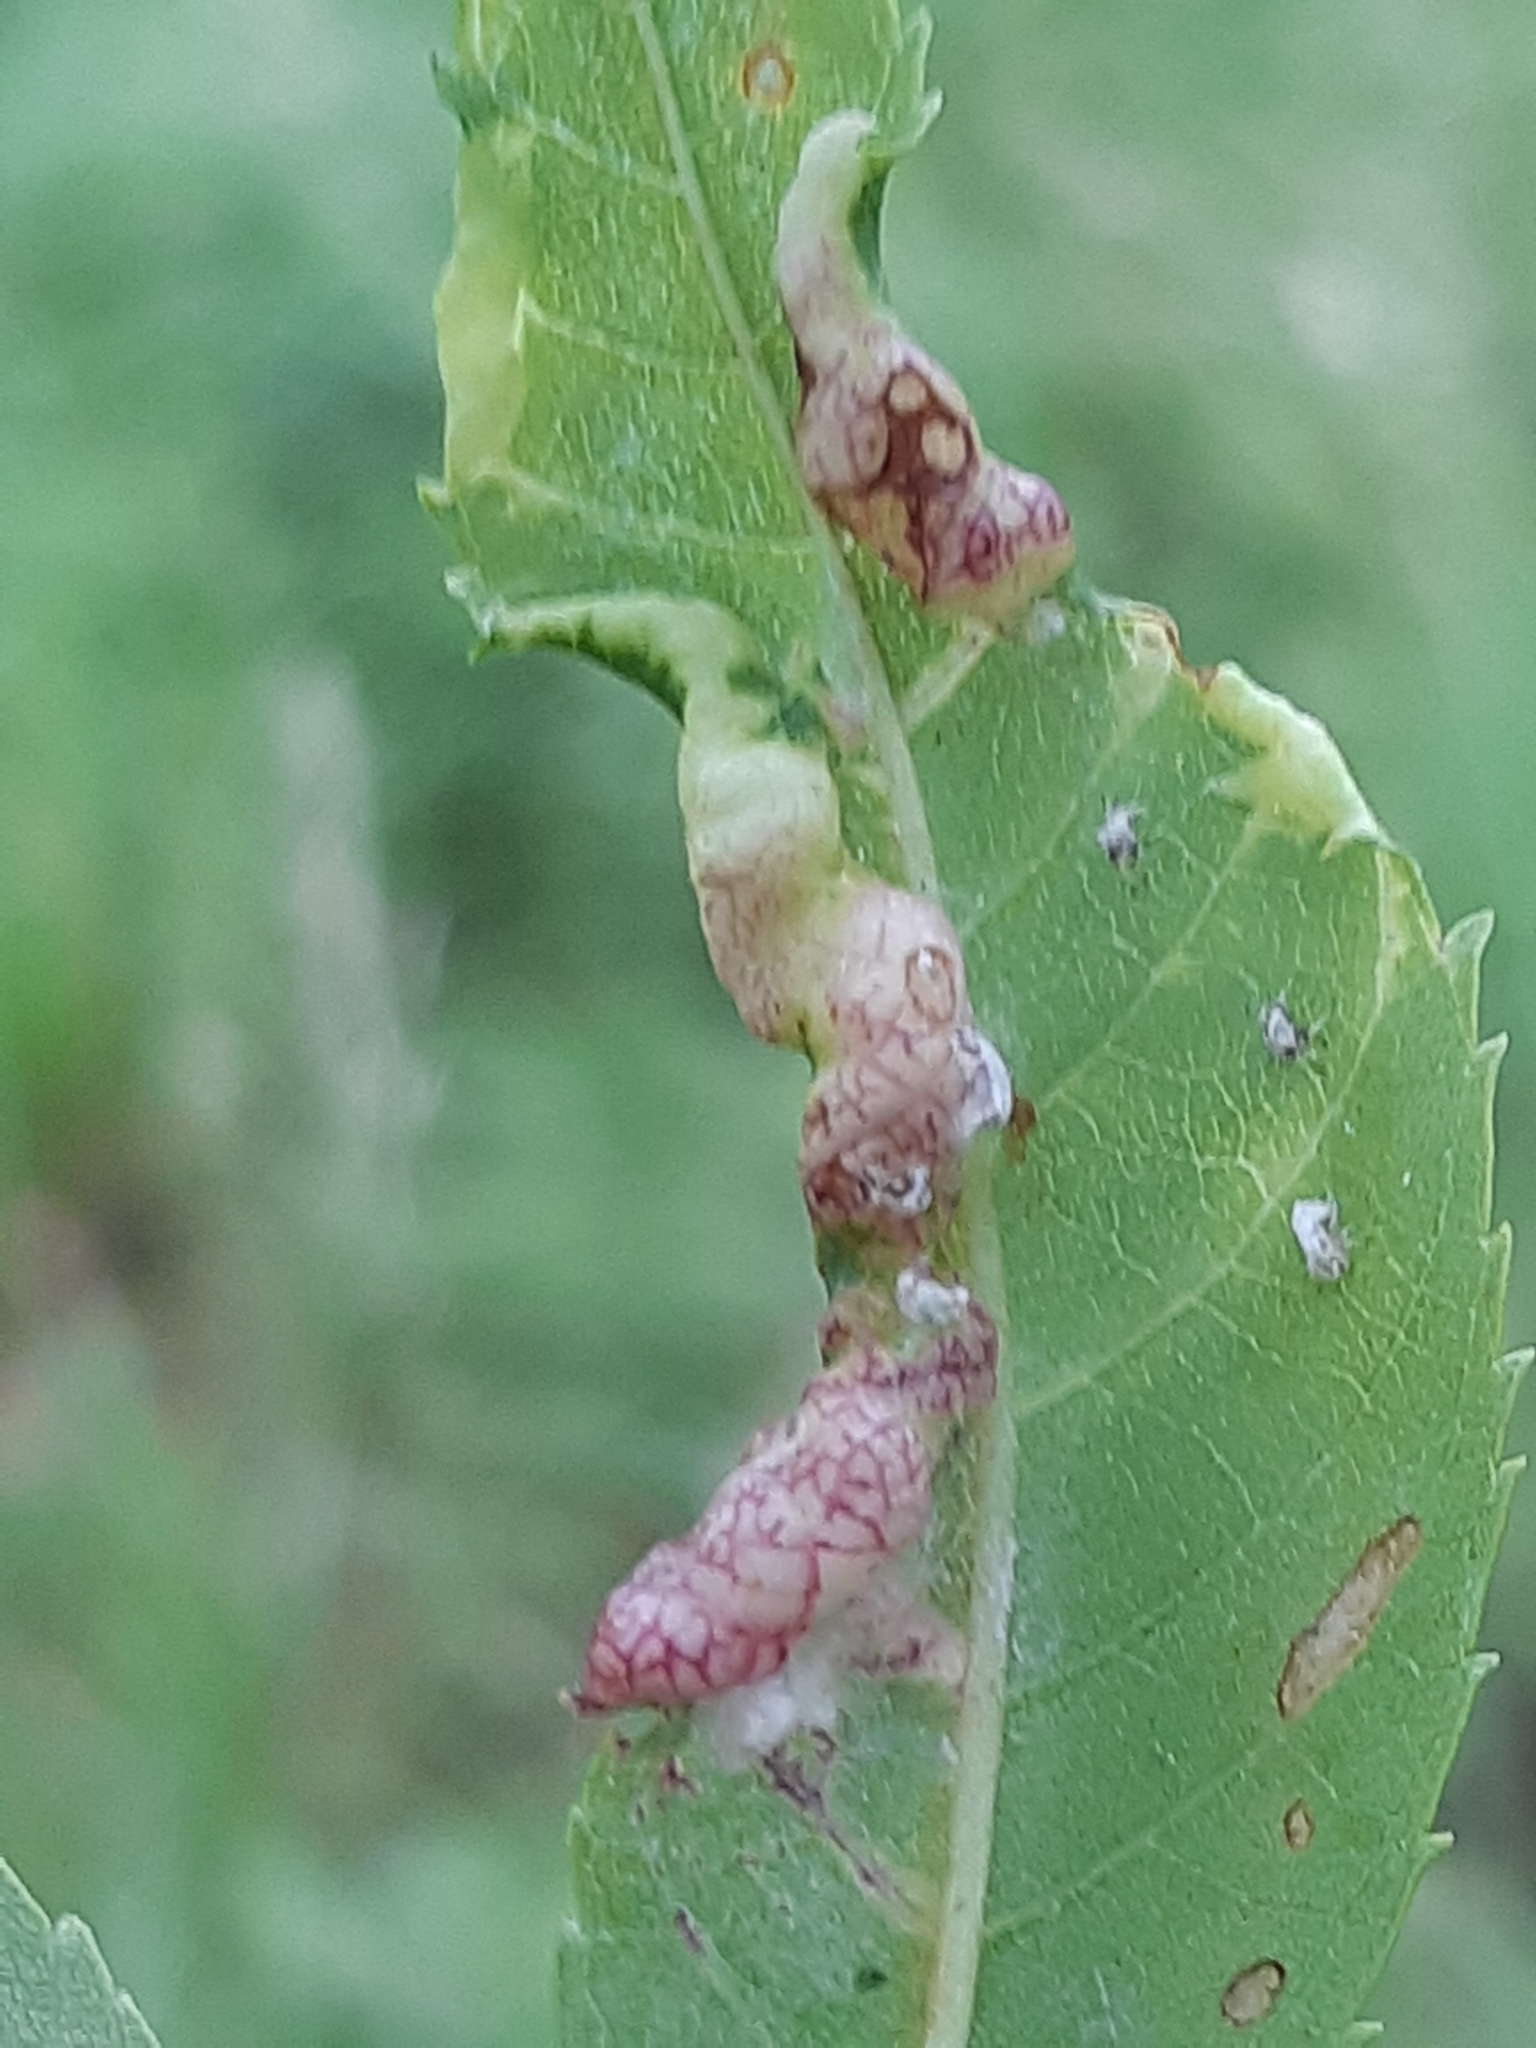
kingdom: Animalia
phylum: Arthropoda
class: Insecta
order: Hemiptera
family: Liviidae
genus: Psyllopsis
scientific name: Psyllopsis fraxini
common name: Jumping plant louse
